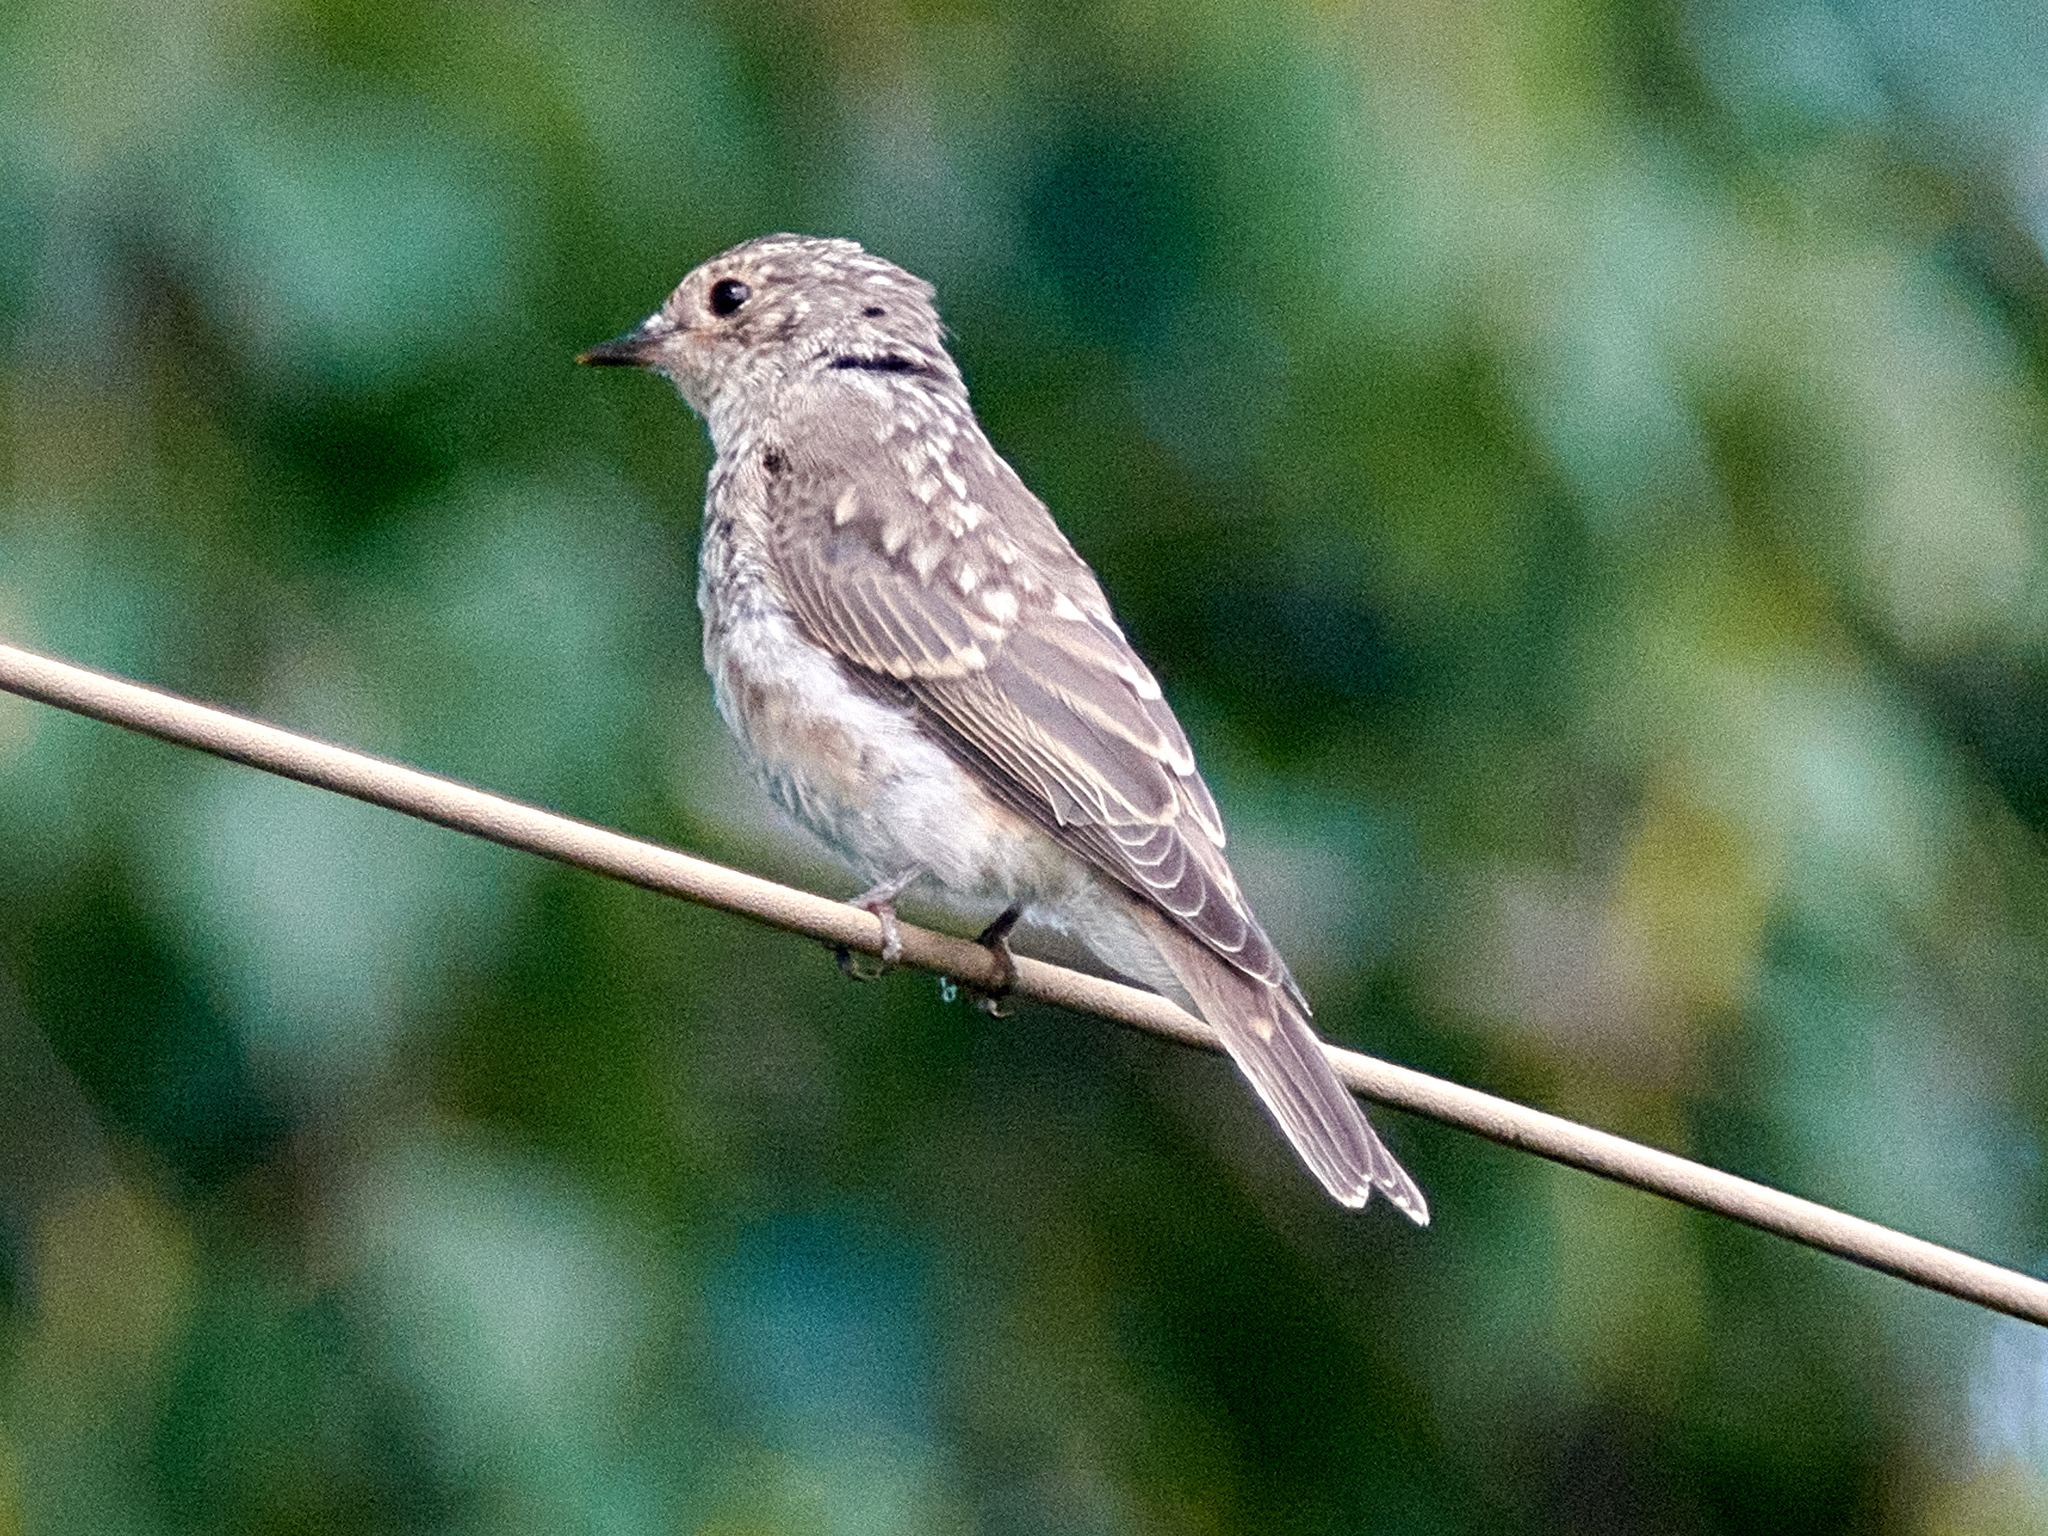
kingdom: Animalia
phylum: Chordata
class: Aves
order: Passeriformes
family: Muscicapidae
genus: Muscicapa
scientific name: Muscicapa striata
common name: Spotted flycatcher
